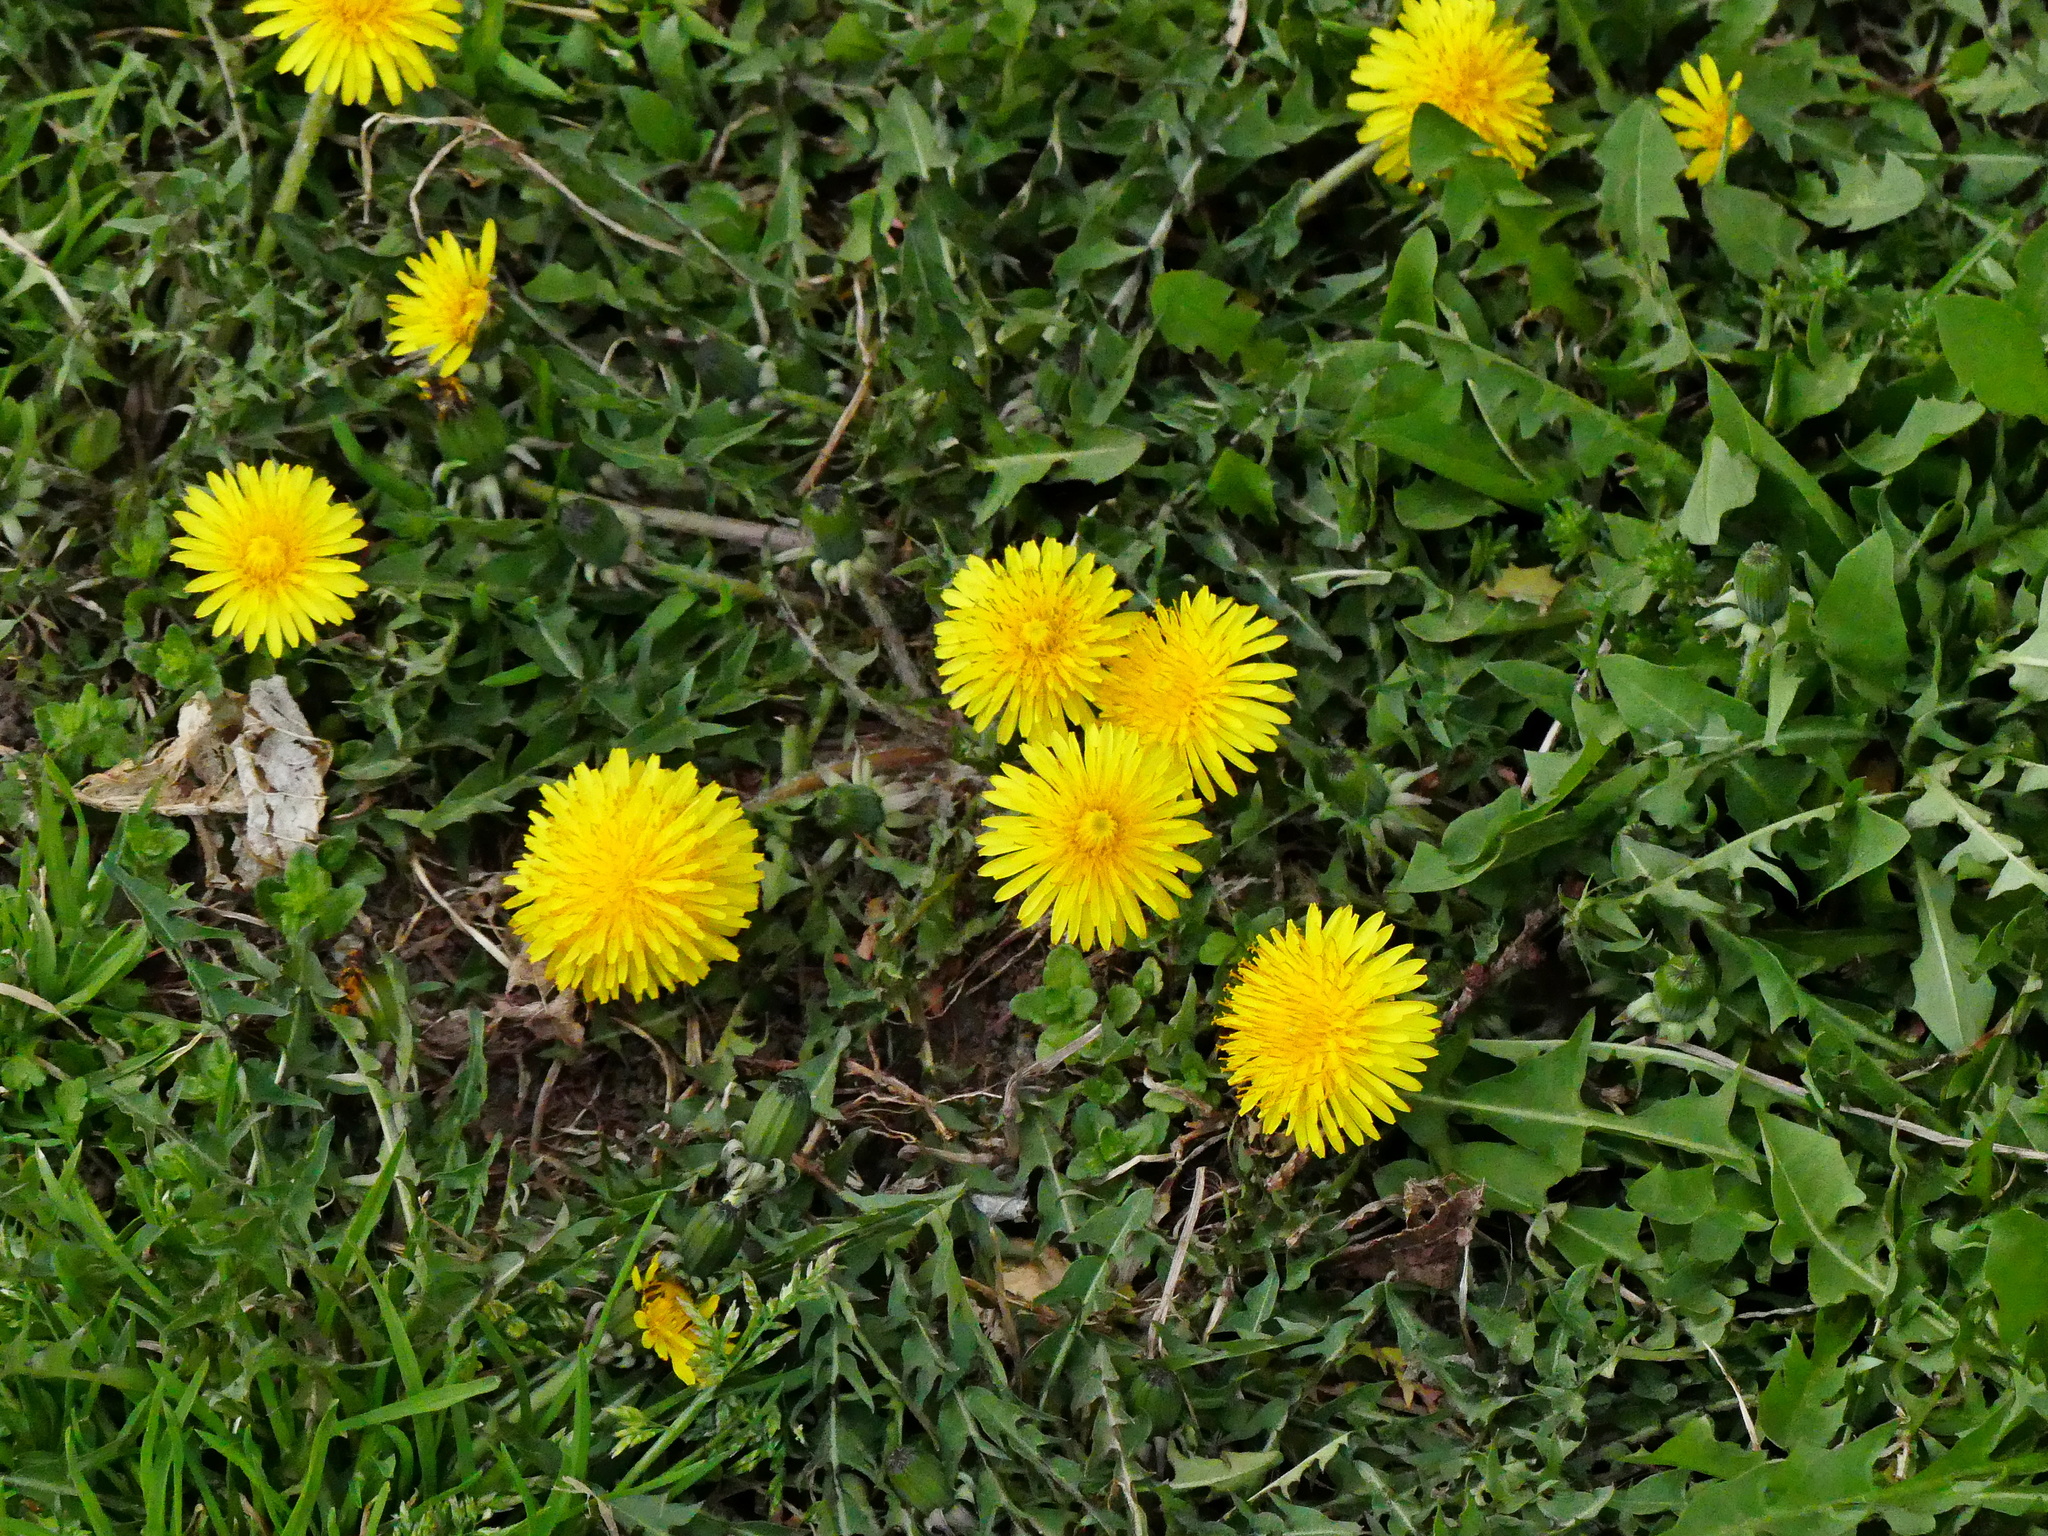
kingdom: Plantae
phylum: Tracheophyta
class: Magnoliopsida
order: Asterales
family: Asteraceae
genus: Taraxacum
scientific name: Taraxacum officinale
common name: Common dandelion
